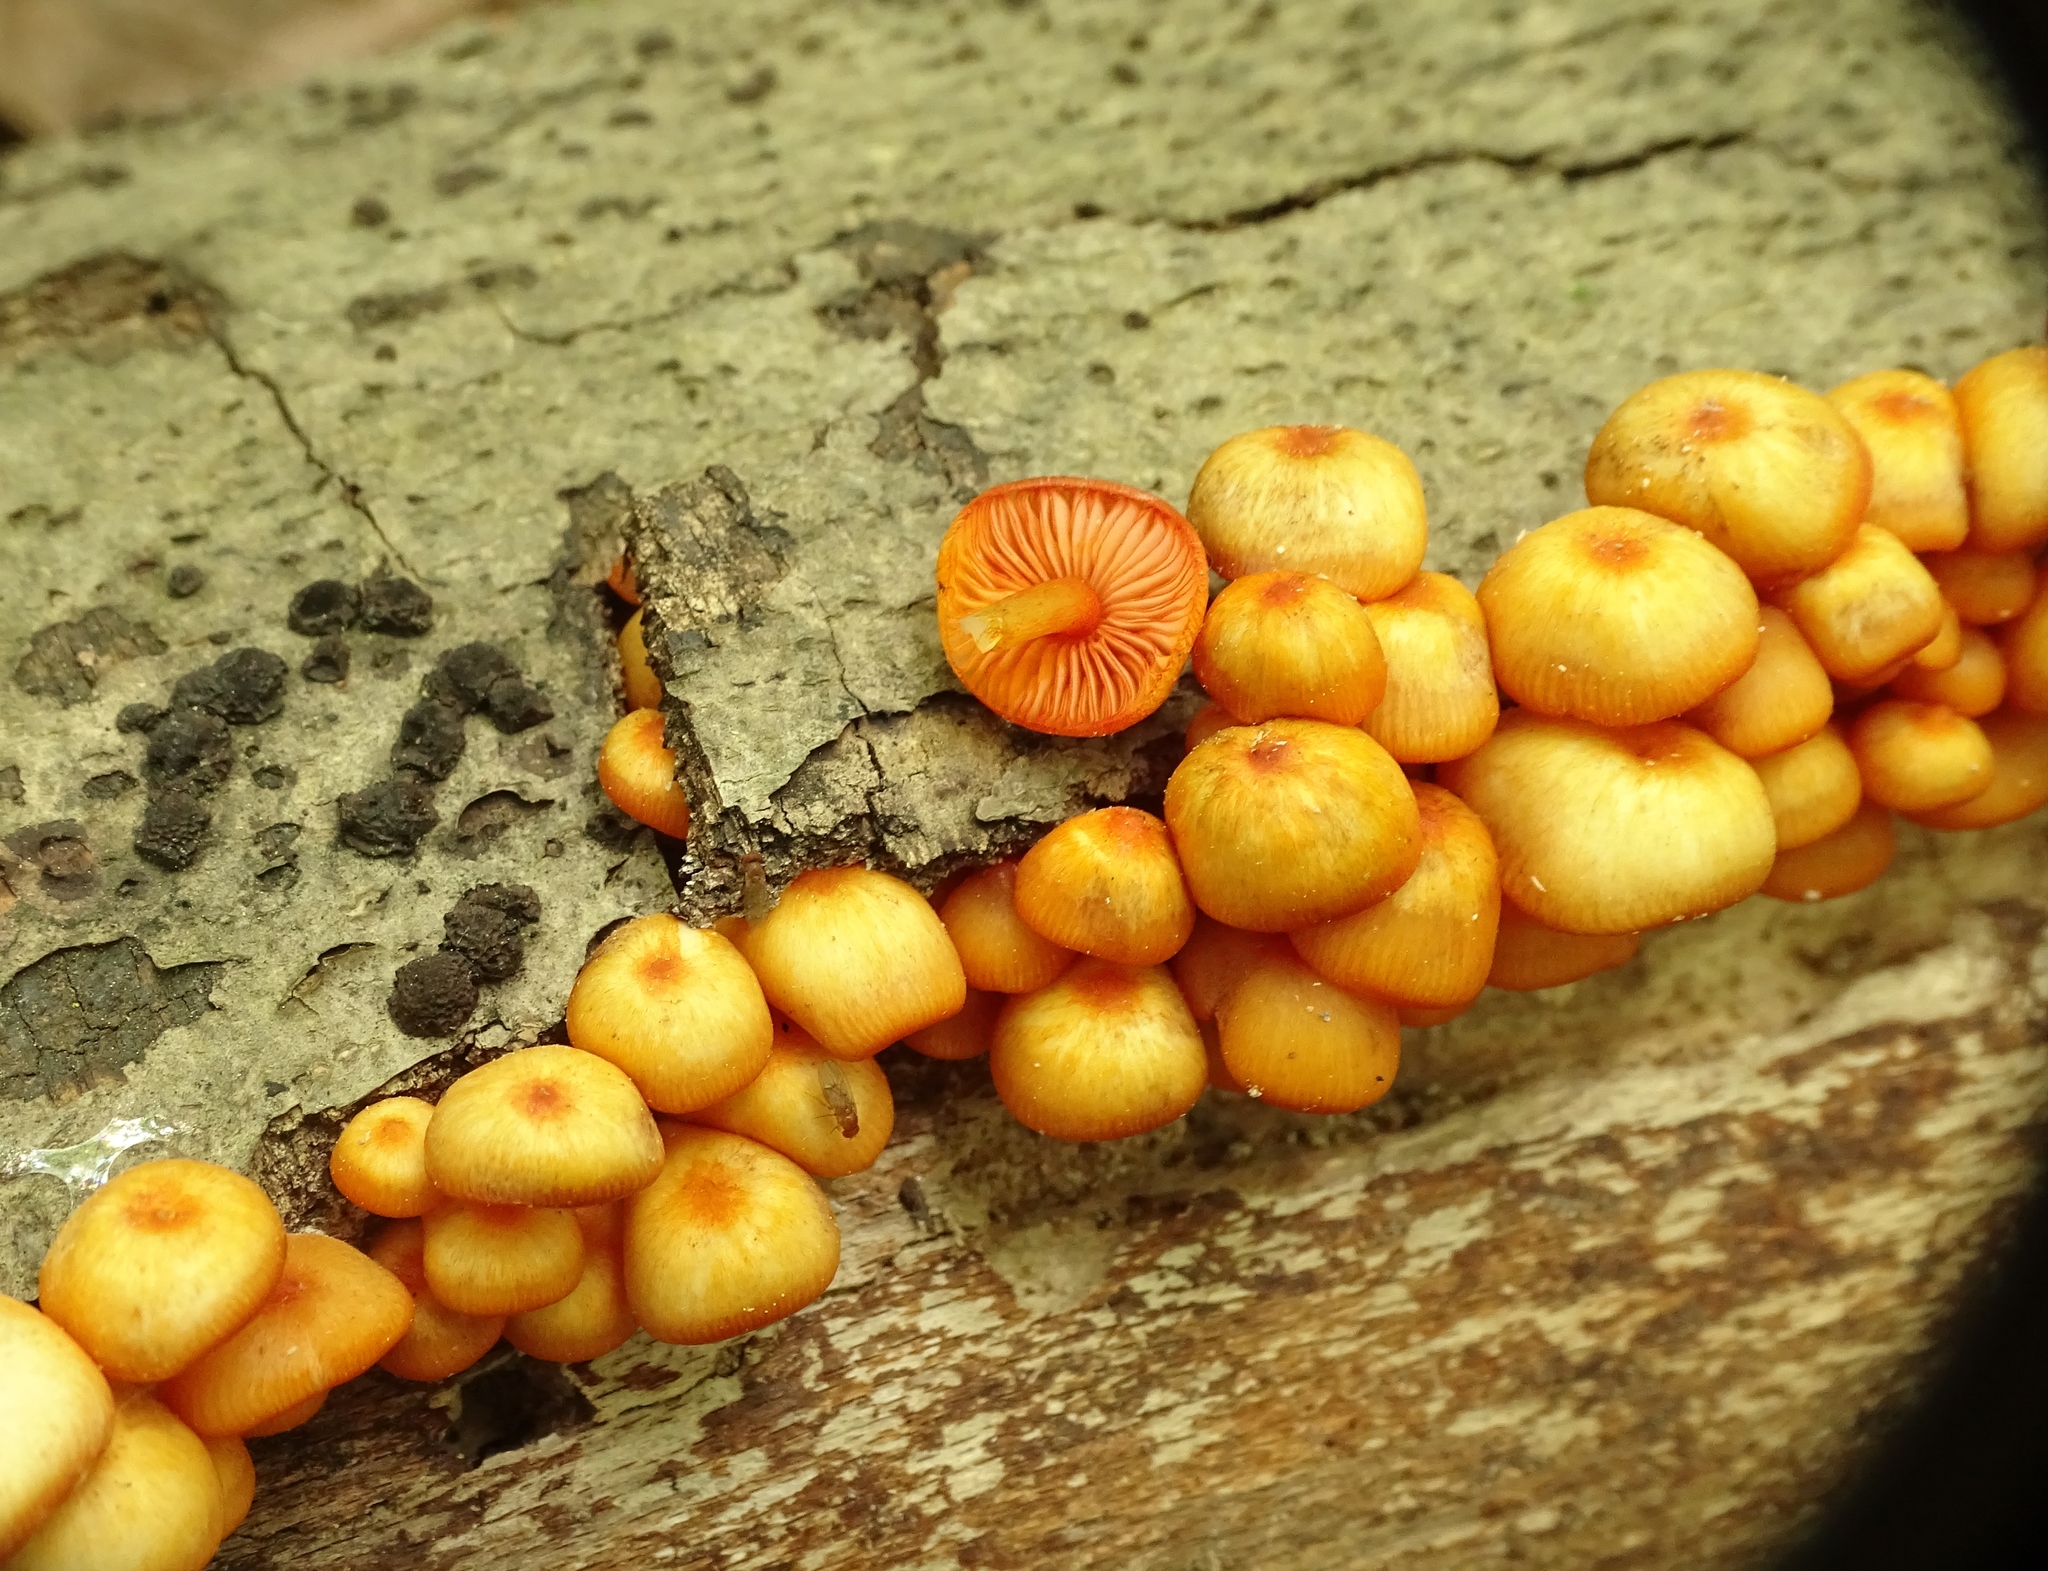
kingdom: Fungi
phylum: Basidiomycota
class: Agaricomycetes
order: Agaricales
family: Mycenaceae
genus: Mycena
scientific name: Mycena leaiana
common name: Orange mycena
